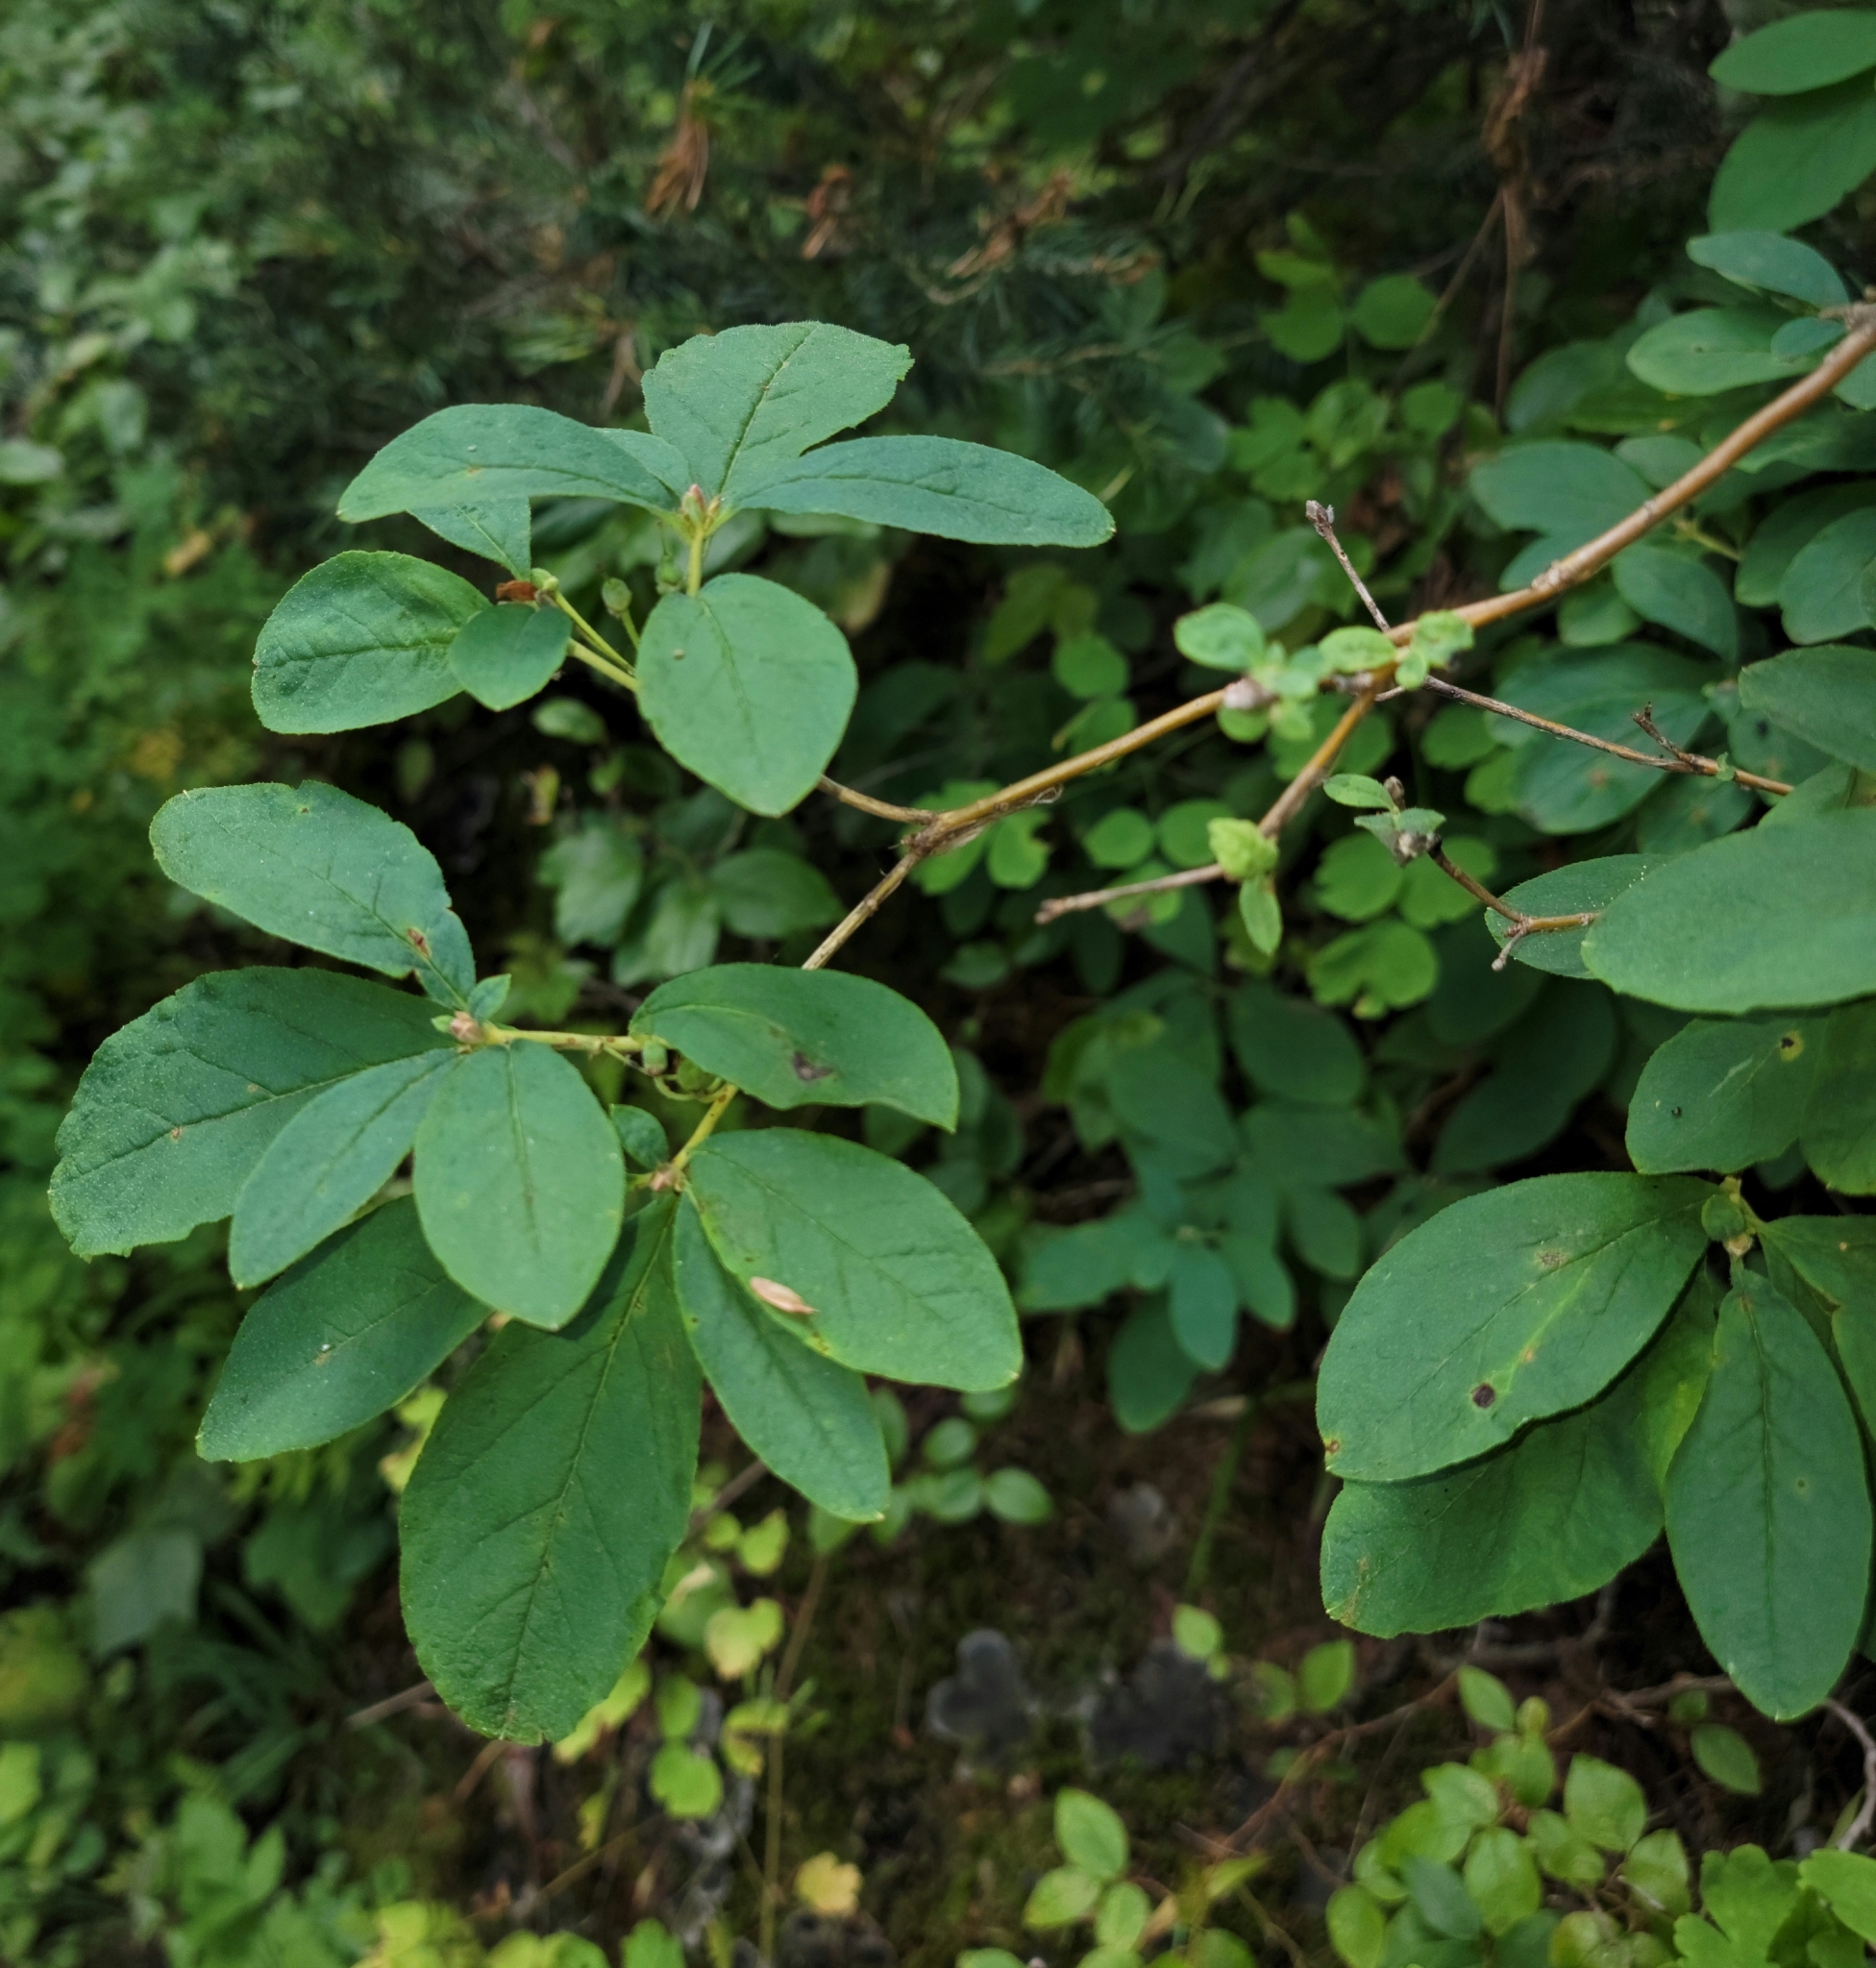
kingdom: Plantae
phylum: Tracheophyta
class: Magnoliopsida
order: Ericales
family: Ericaceae
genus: Rhododendron
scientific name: Rhododendron menziesii
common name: Pacific menziesia
